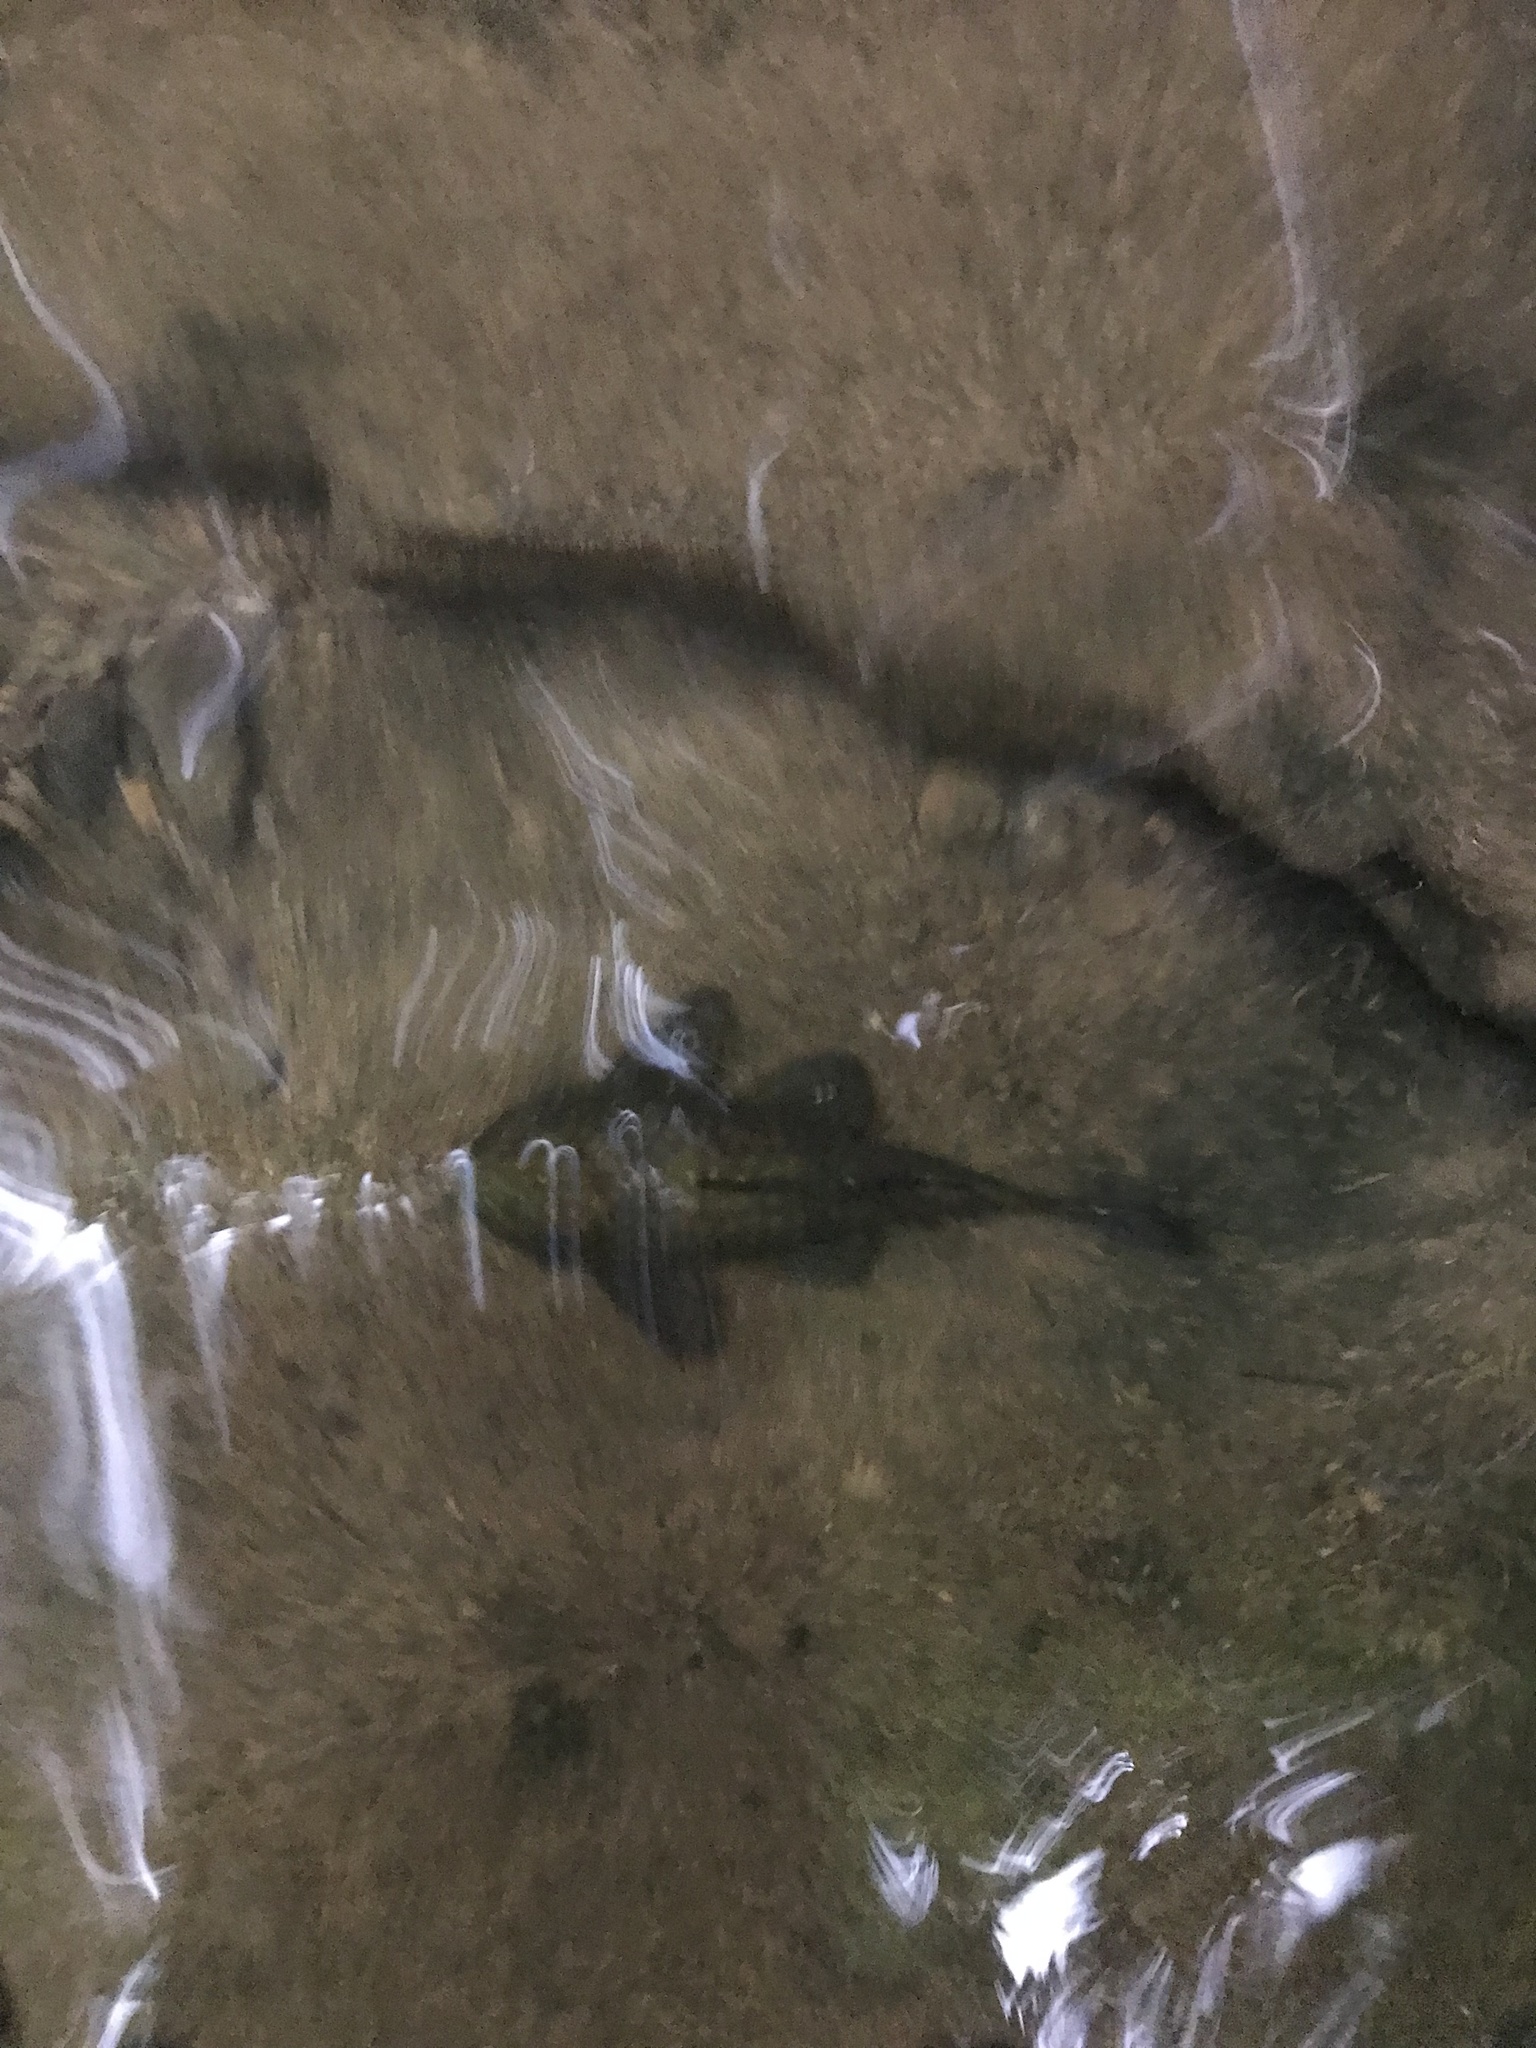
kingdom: Animalia
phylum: Chordata
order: Siluriformes
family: Loricariidae
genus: Ancistrus
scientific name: Ancistrus chagresi
